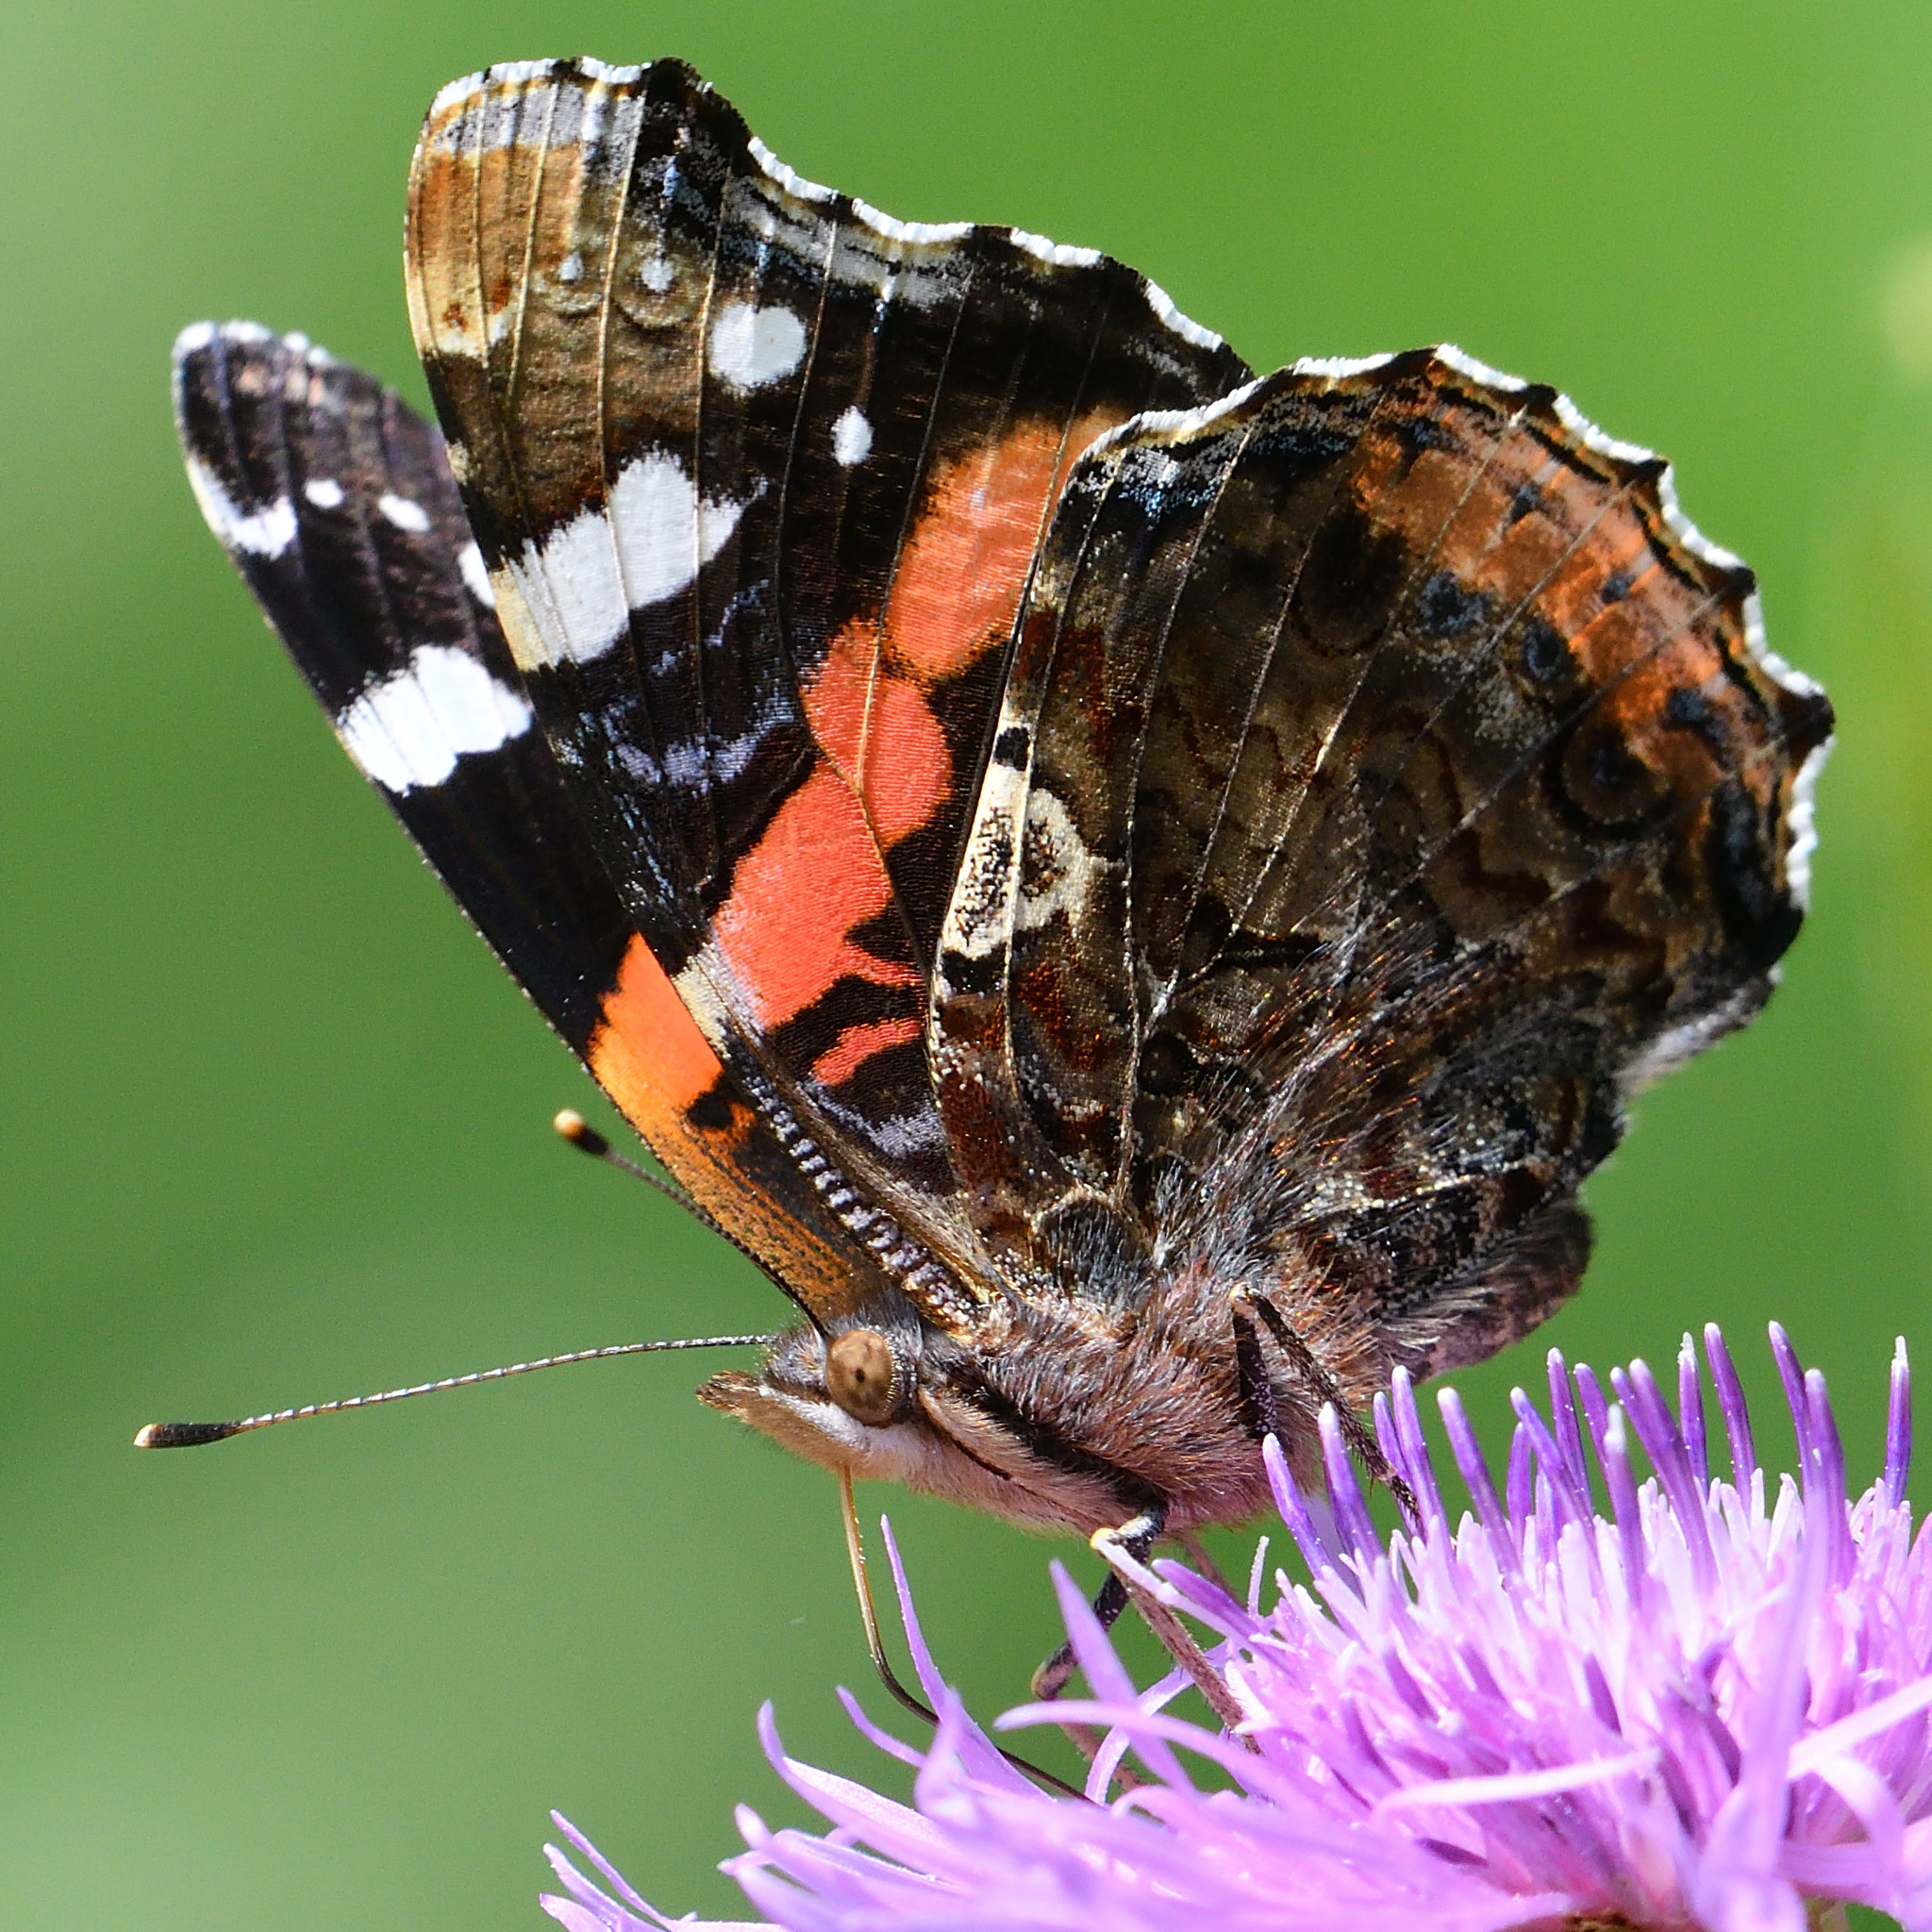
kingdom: Animalia
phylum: Arthropoda
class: Insecta
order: Lepidoptera
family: Nymphalidae
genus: Vanessa
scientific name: Vanessa atalanta
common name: Red admiral
